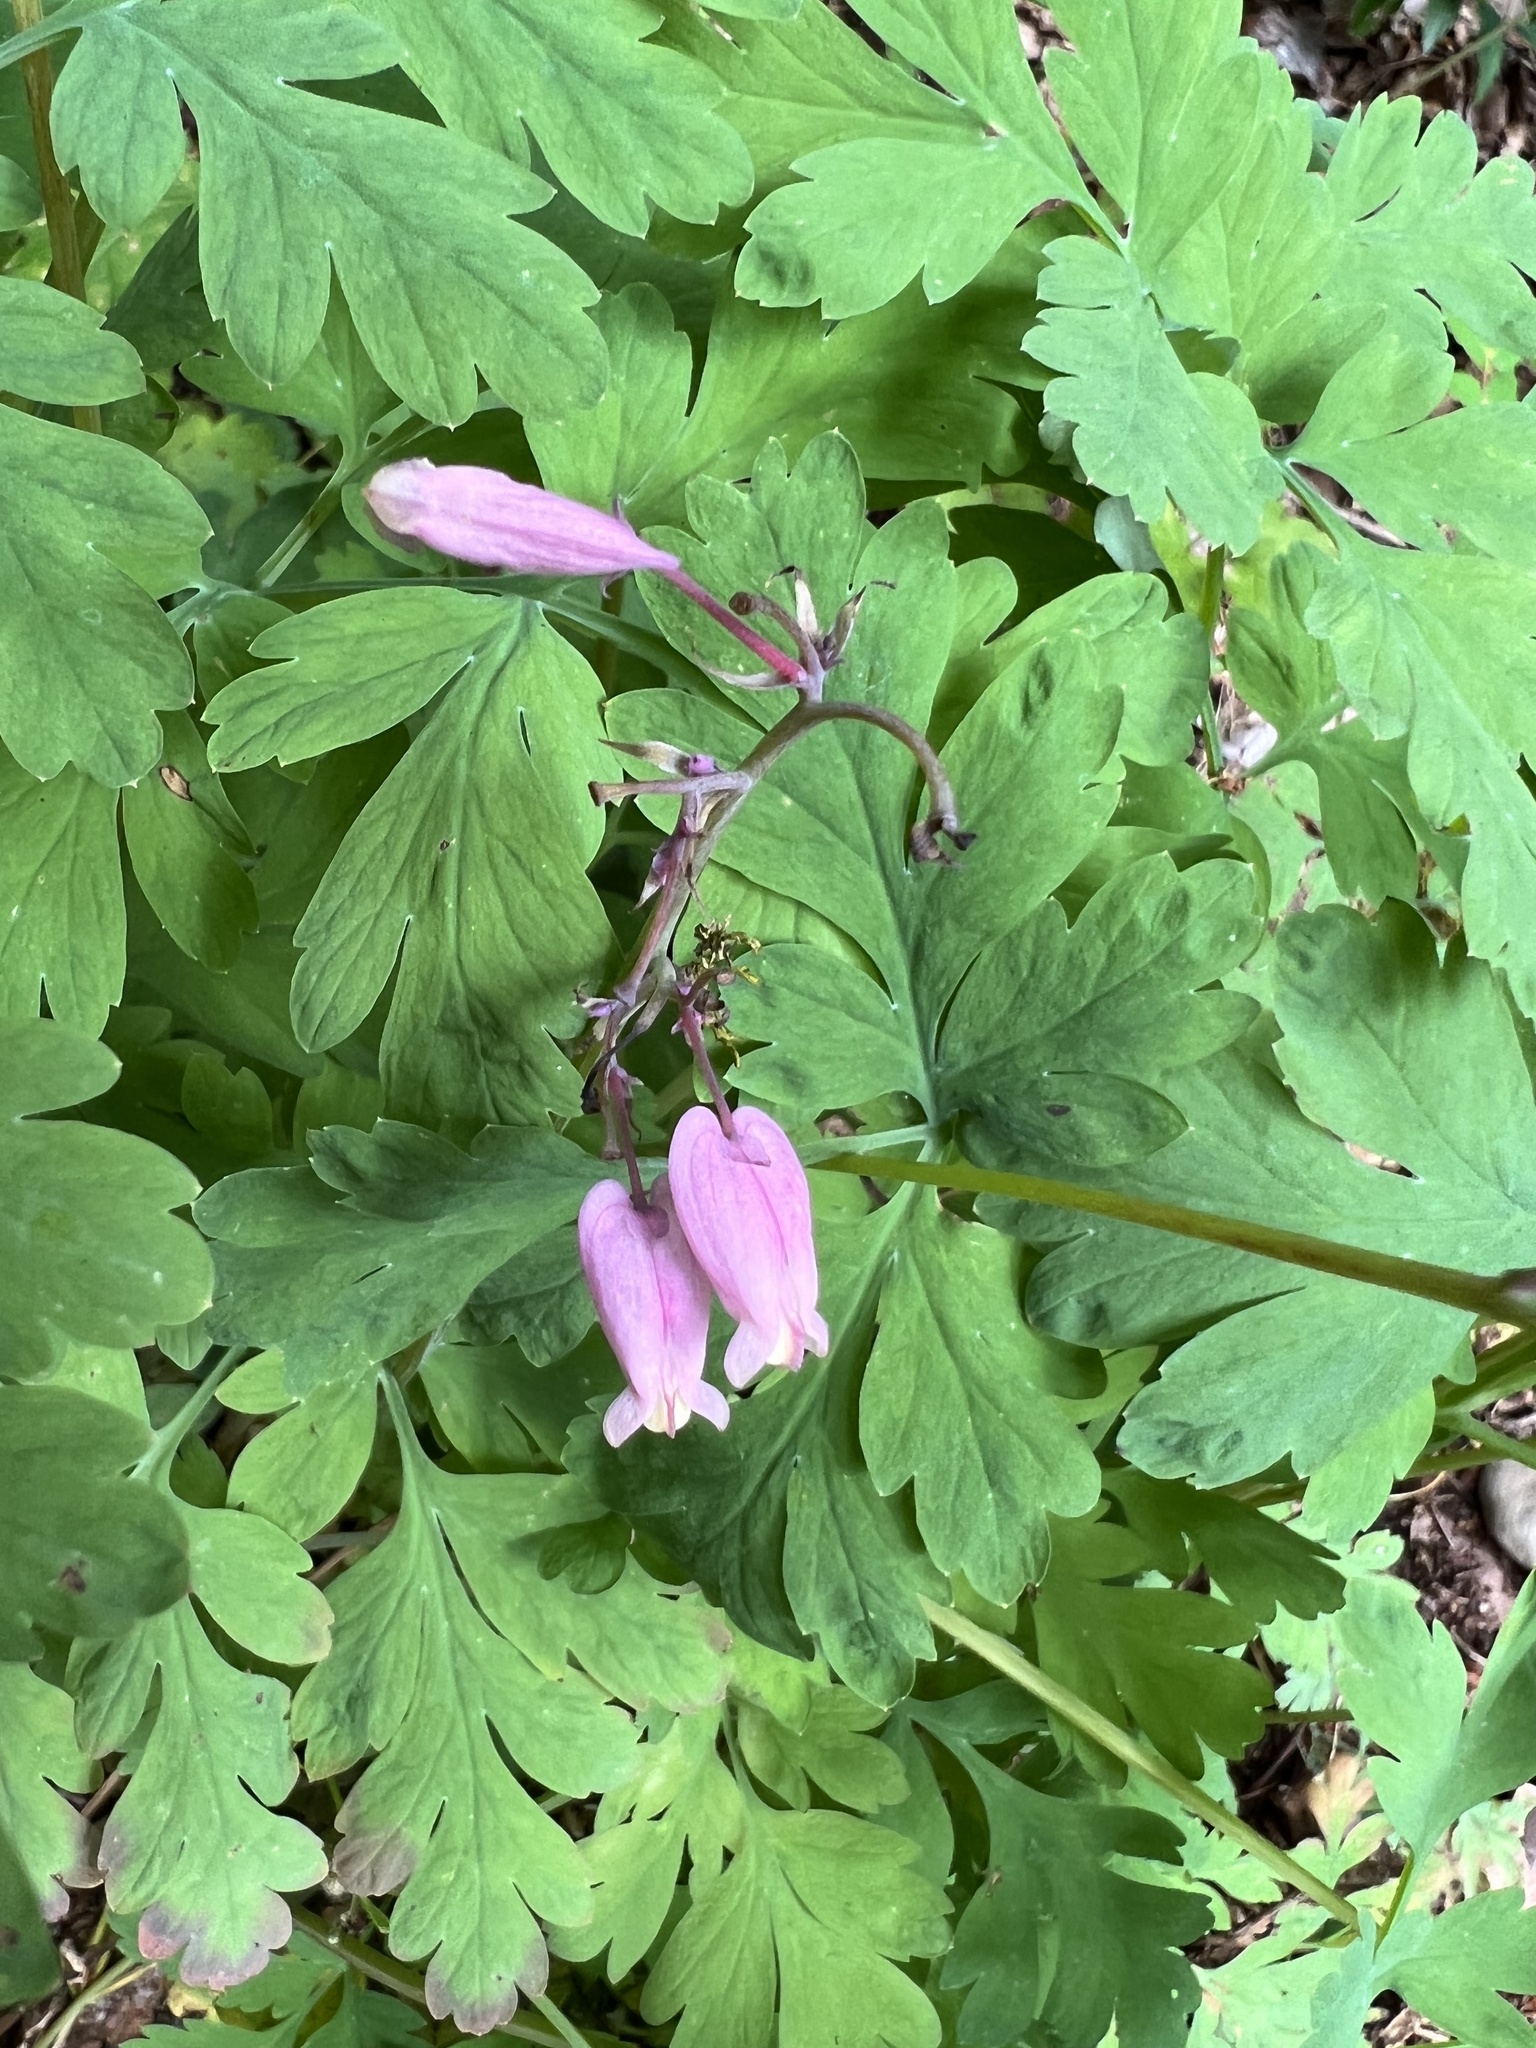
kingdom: Plantae
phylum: Tracheophyta
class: Magnoliopsida
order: Ranunculales
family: Papaveraceae
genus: Dicentra
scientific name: Dicentra formosa
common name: Bleeding-heart
